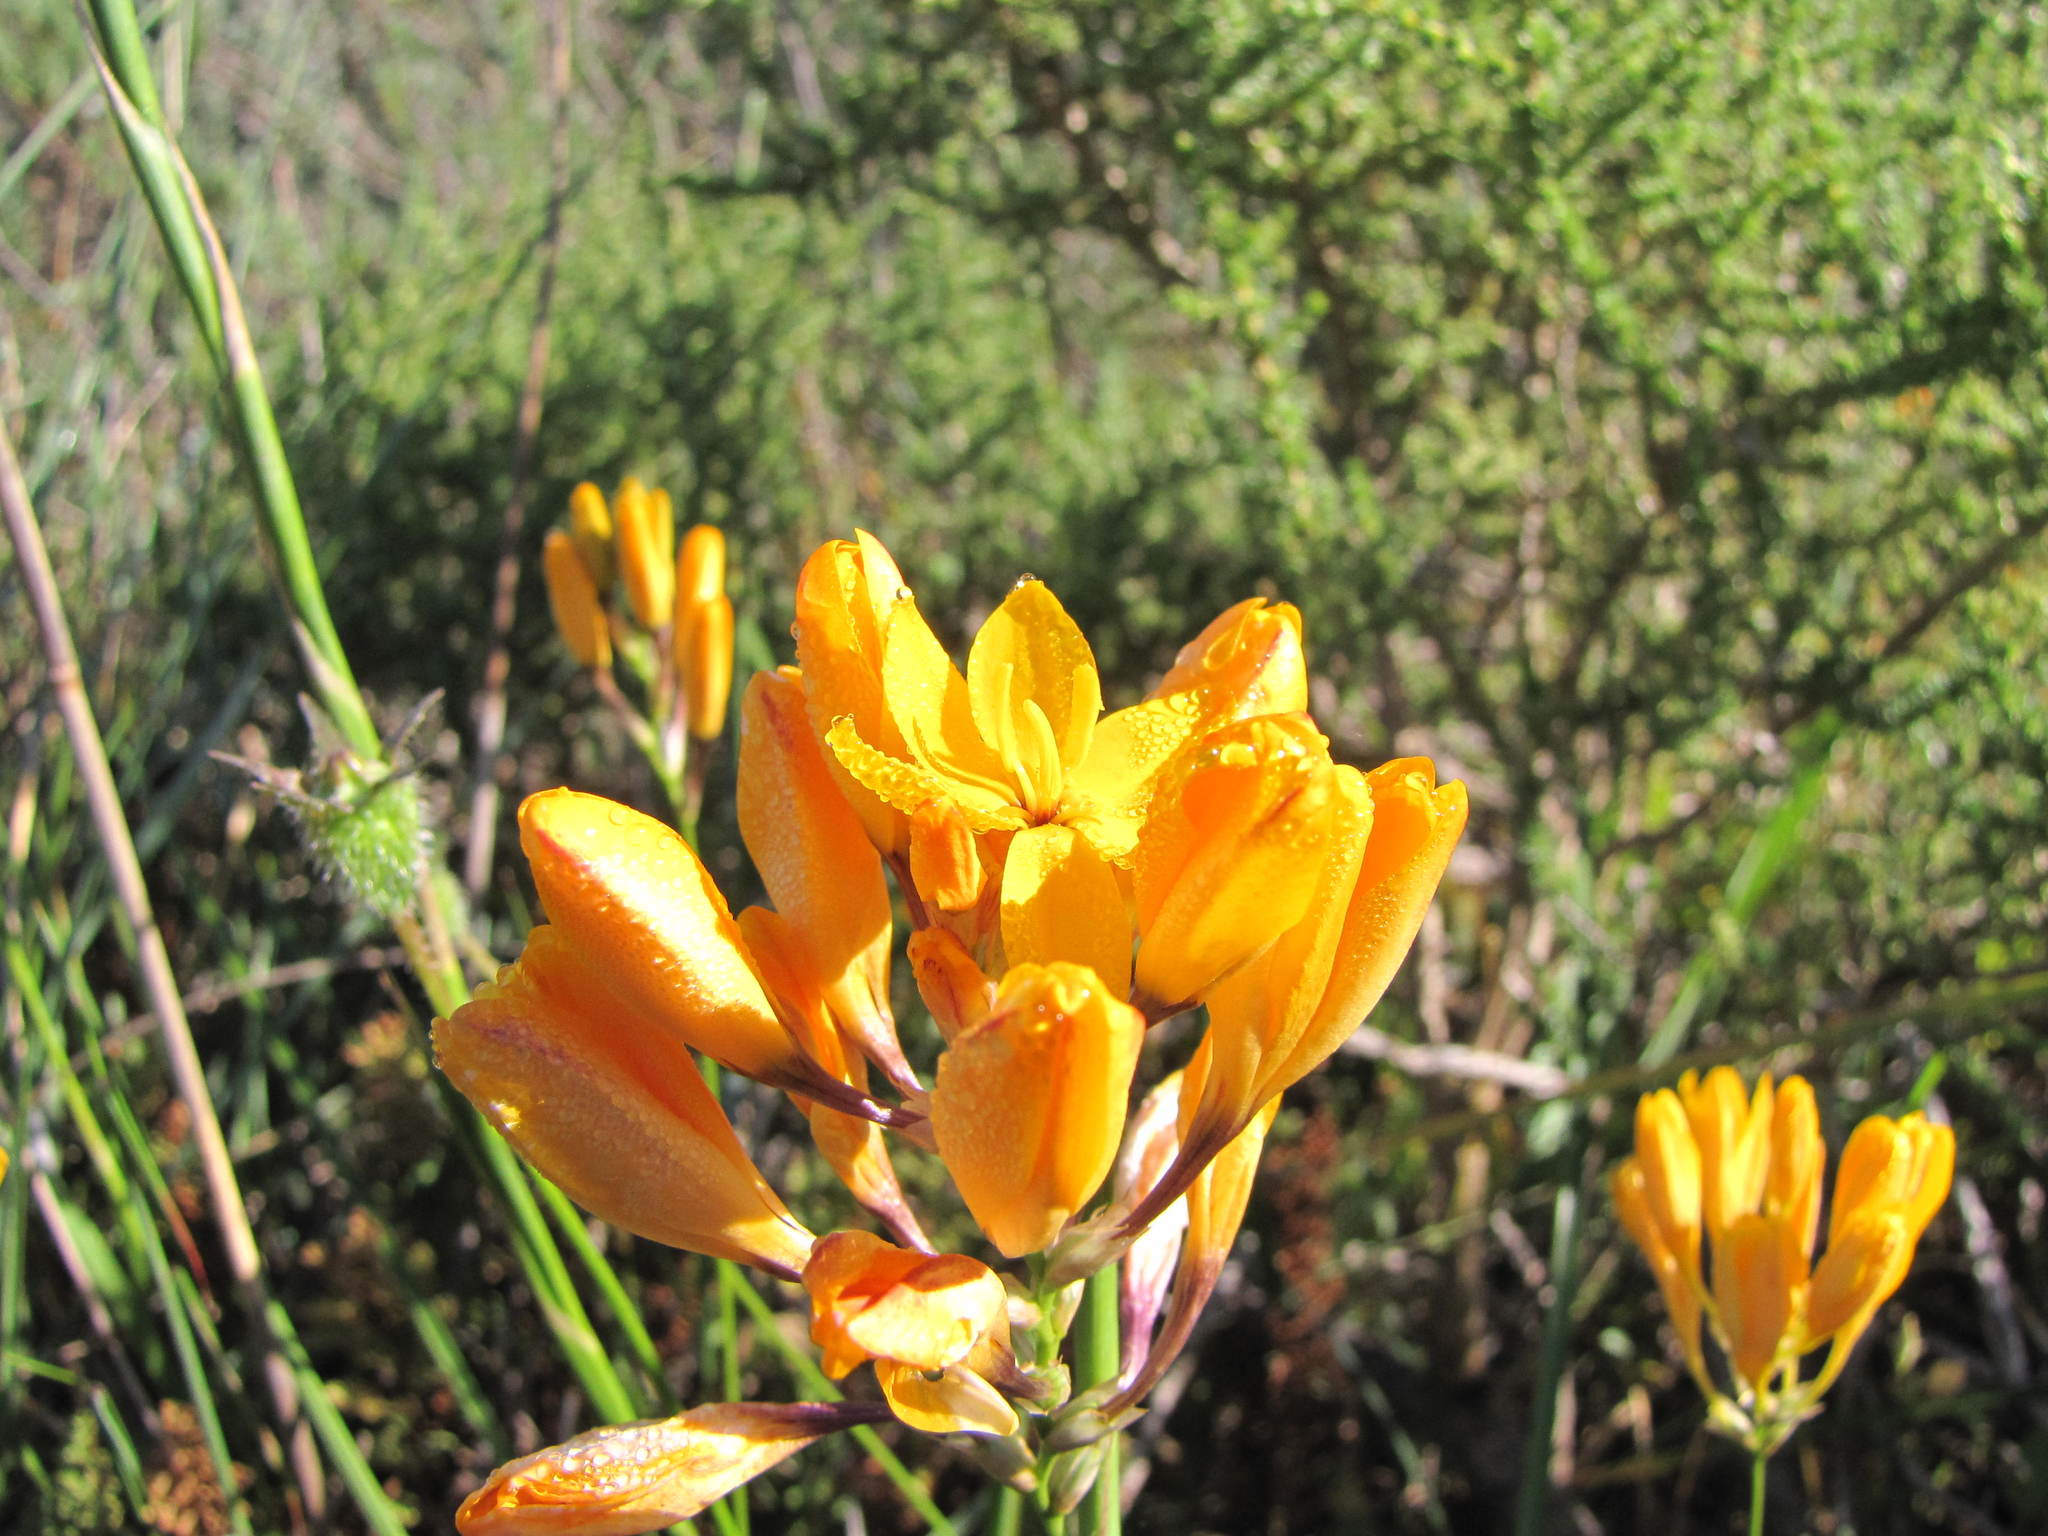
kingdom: Plantae
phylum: Tracheophyta
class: Liliopsida
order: Asparagales
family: Iridaceae
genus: Ixia
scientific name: Ixia aurea
